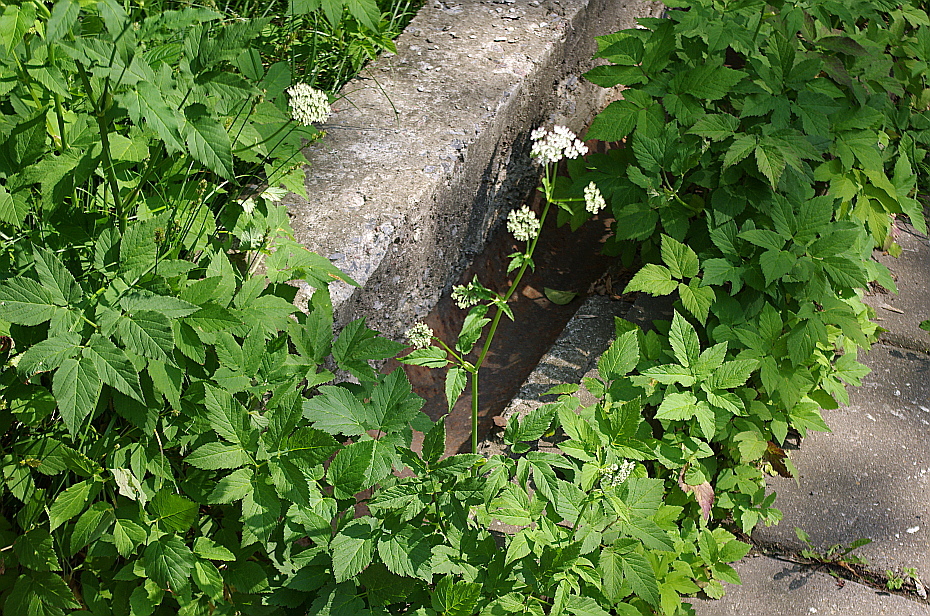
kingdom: Plantae
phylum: Tracheophyta
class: Magnoliopsida
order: Apiales
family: Apiaceae
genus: Aegopodium
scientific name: Aegopodium podagraria
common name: Ground-elder
